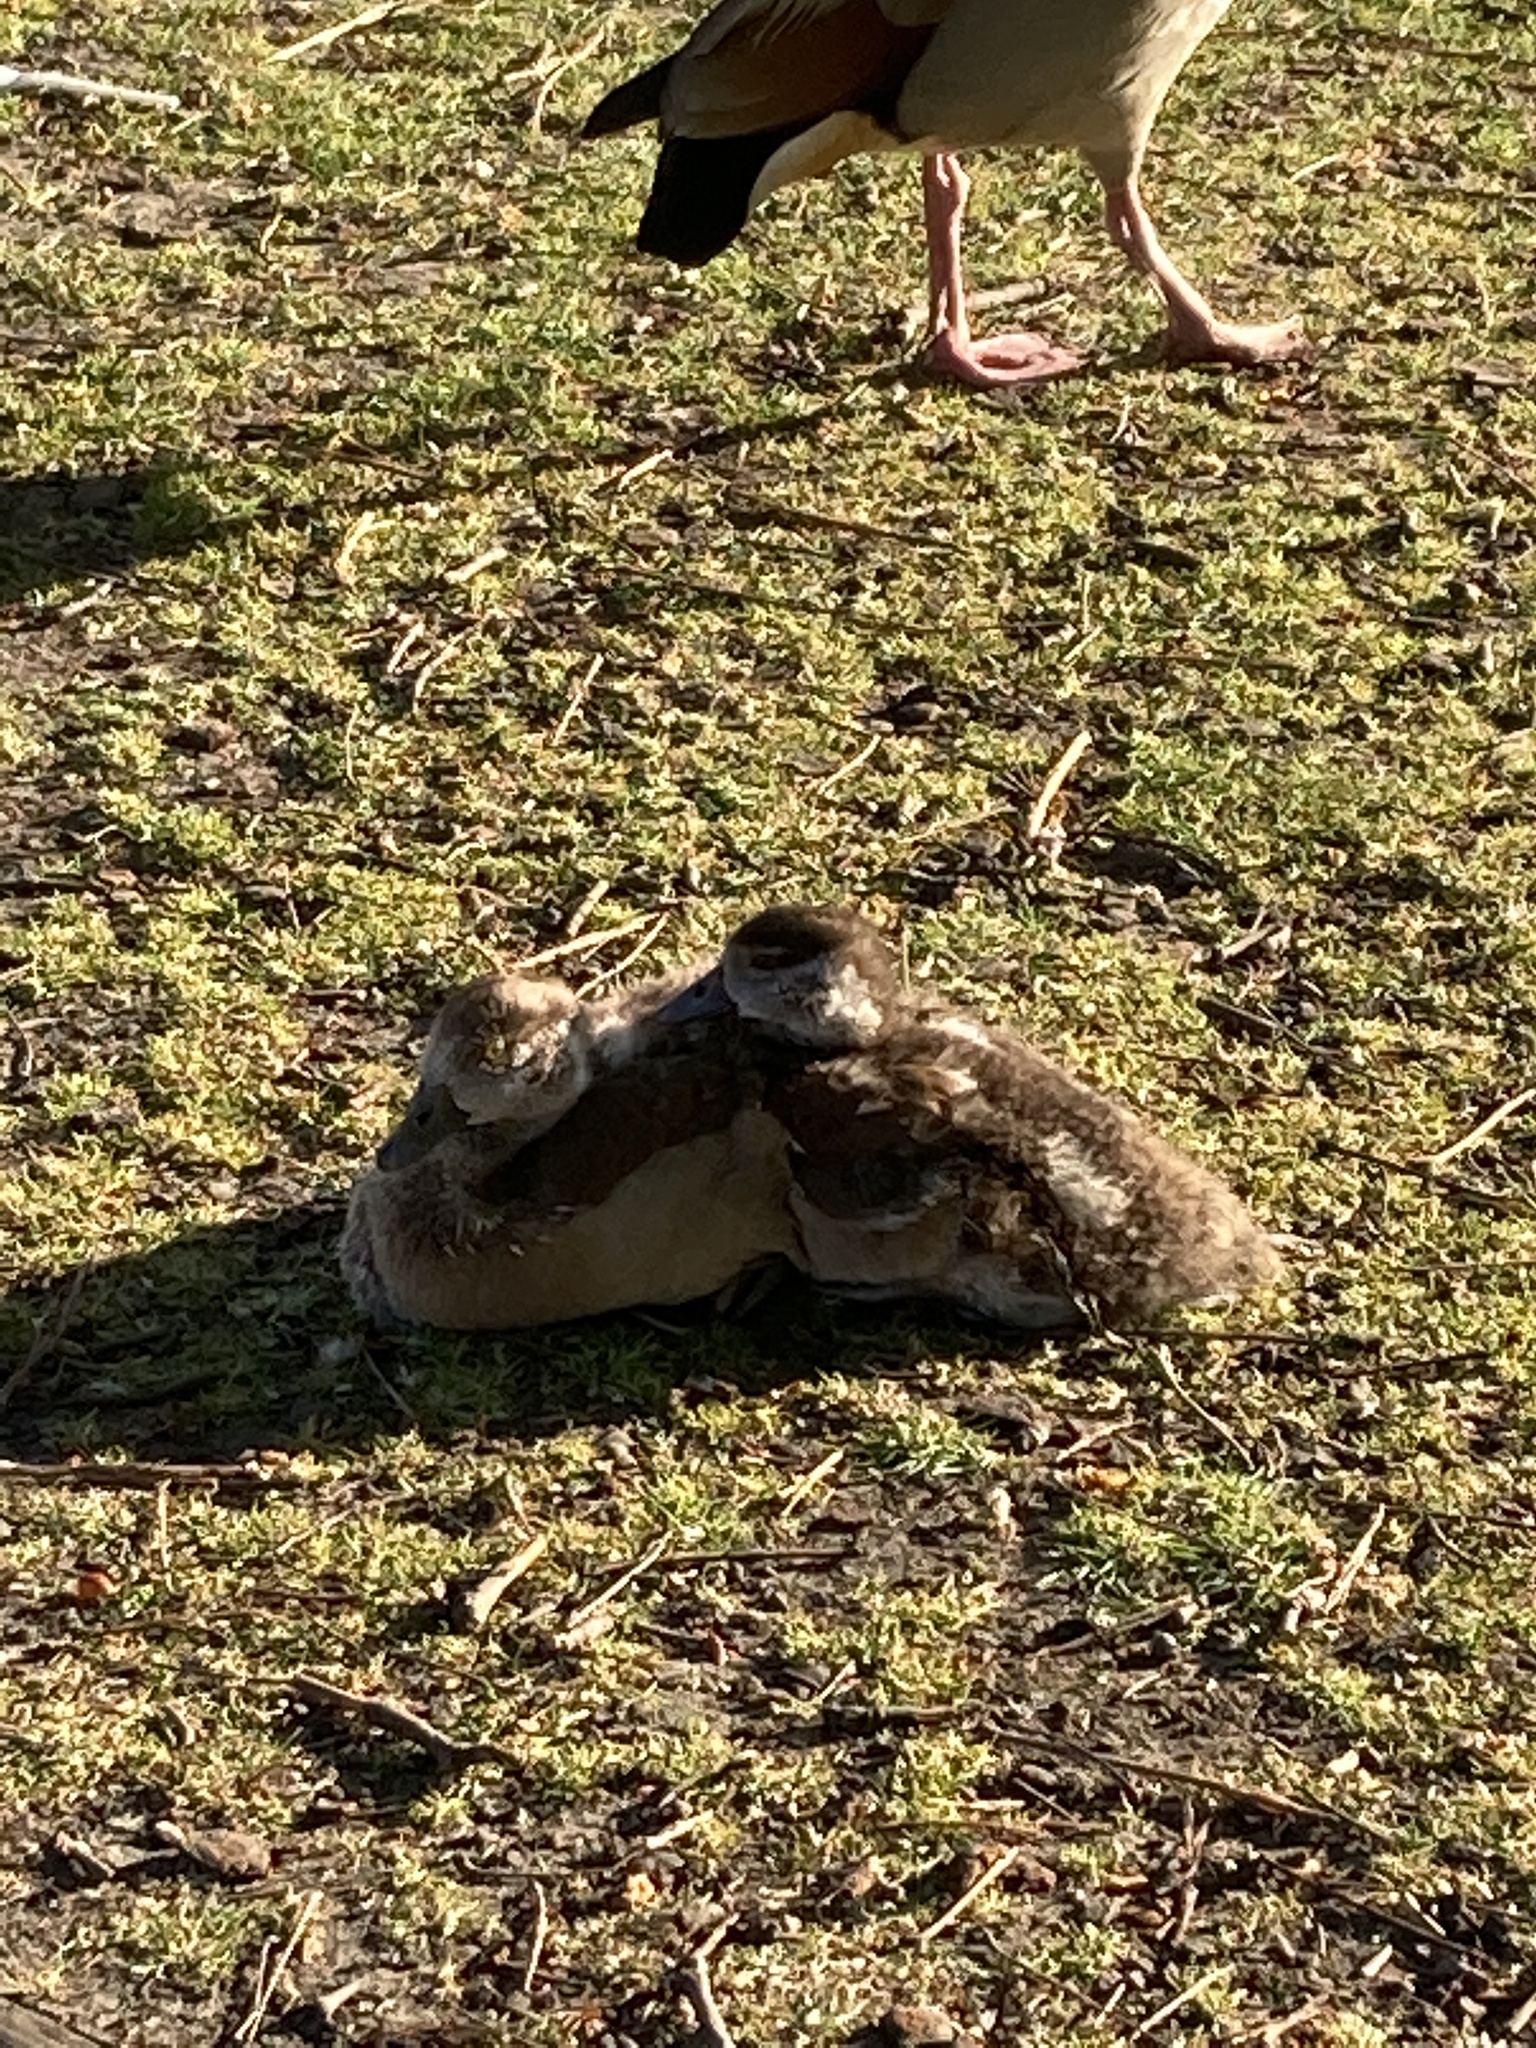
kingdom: Animalia
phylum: Chordata
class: Aves
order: Anseriformes
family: Anatidae
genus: Alopochen
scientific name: Alopochen aegyptiaca
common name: Egyptian goose
